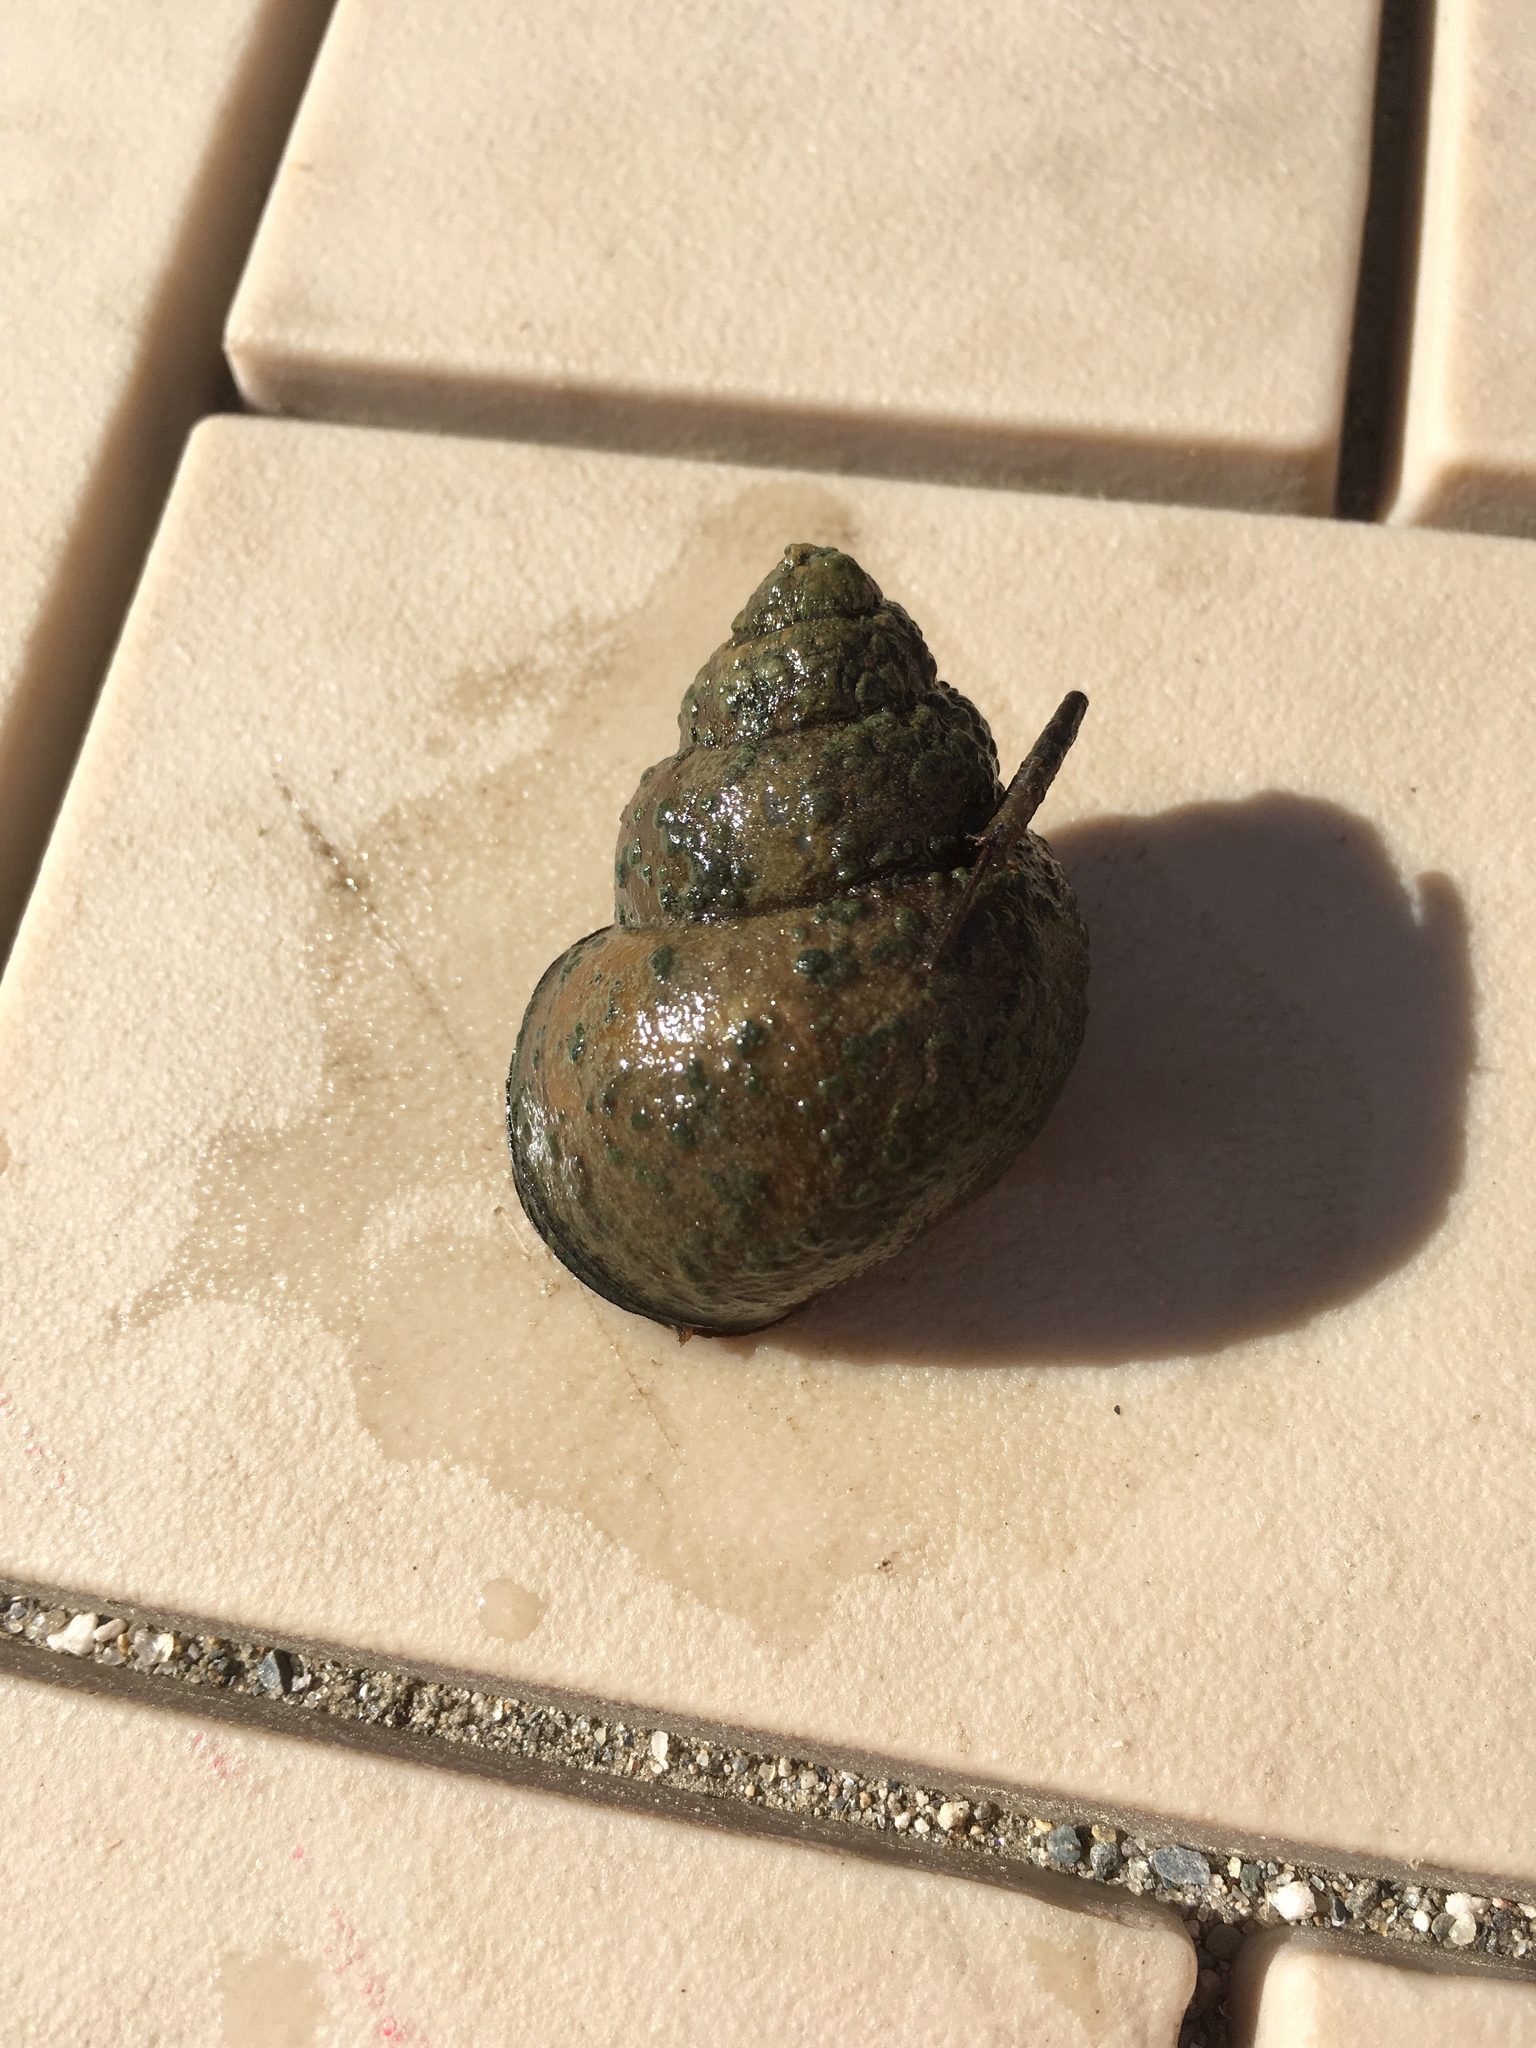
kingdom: Animalia
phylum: Mollusca
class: Gastropoda
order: Architaenioglossa
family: Viviparidae
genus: Cipangopaludina
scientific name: Cipangopaludina chinensis
